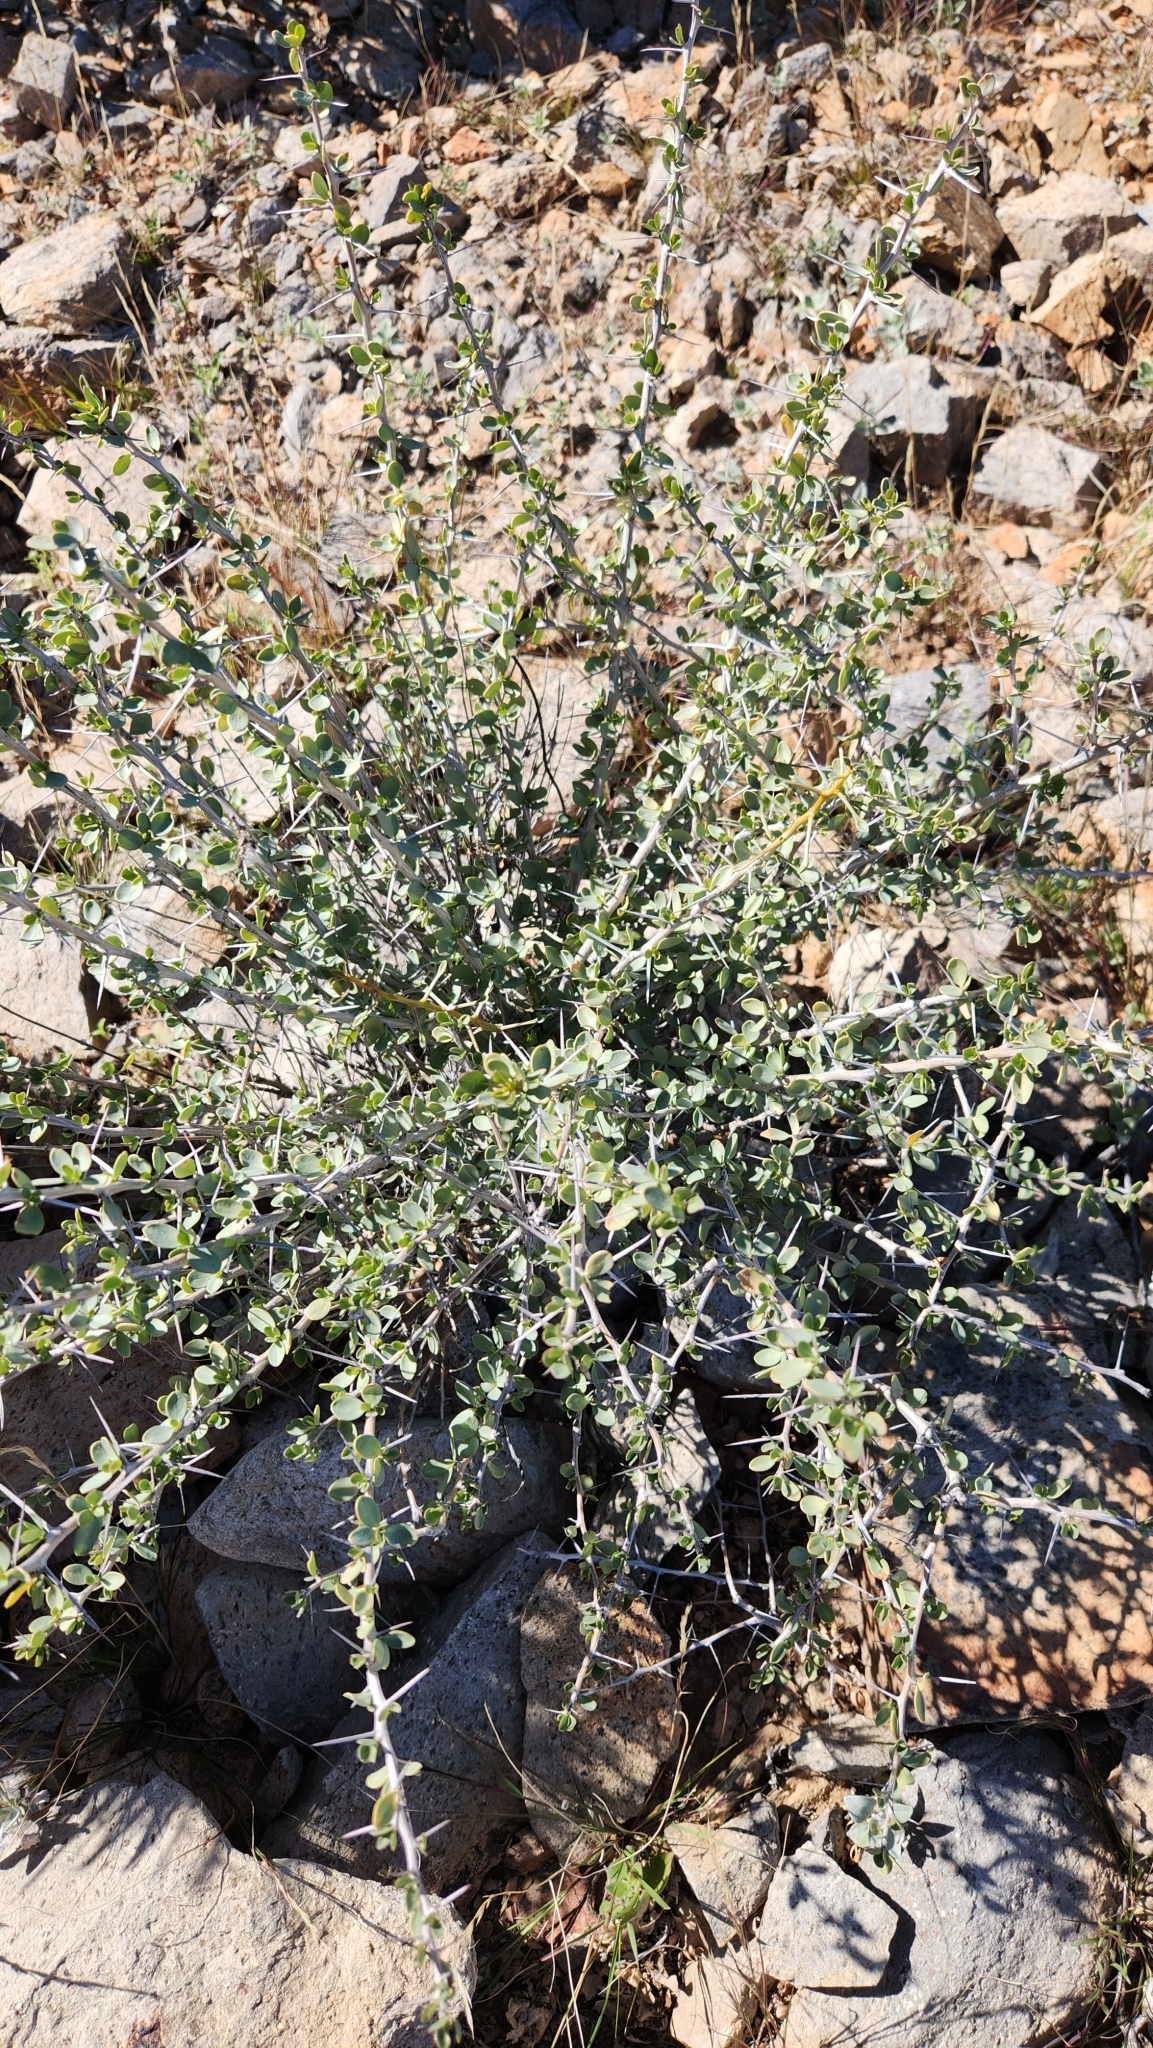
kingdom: Plantae
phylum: Tracheophyta
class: Magnoliopsida
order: Ericales
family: Fouquieriaceae
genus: Fouquieria
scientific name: Fouquieria columnaris
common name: Boojumtree
